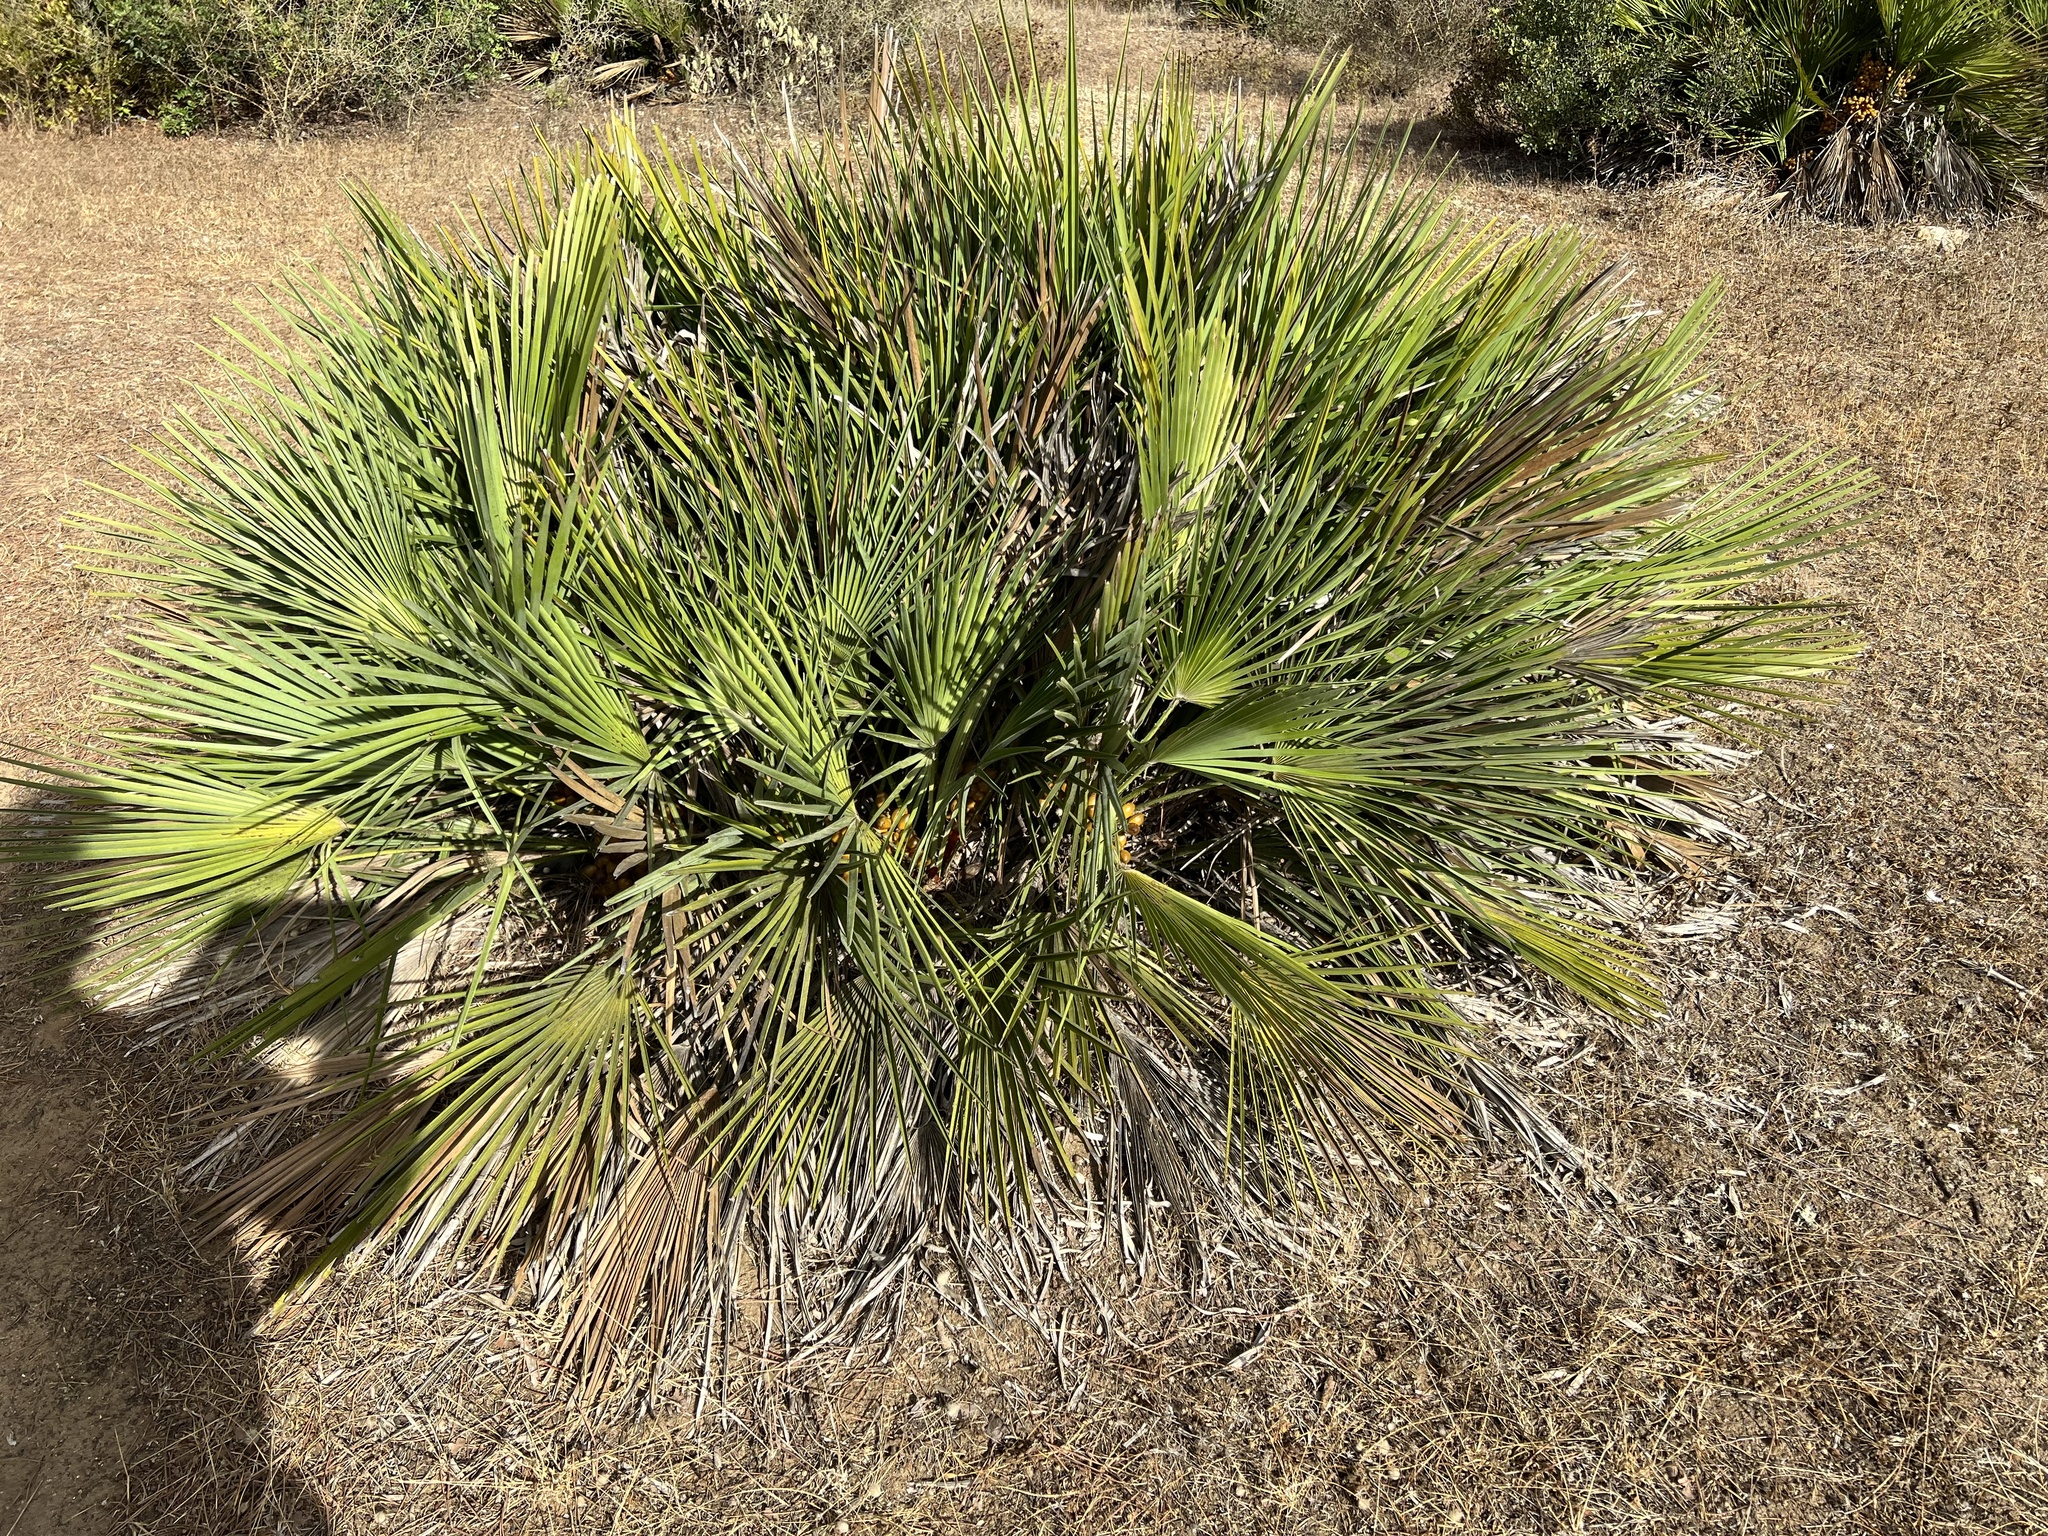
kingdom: Plantae
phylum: Tracheophyta
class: Liliopsida
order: Arecales
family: Arecaceae
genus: Chamaerops
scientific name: Chamaerops humilis
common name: Dwarf fan palm
